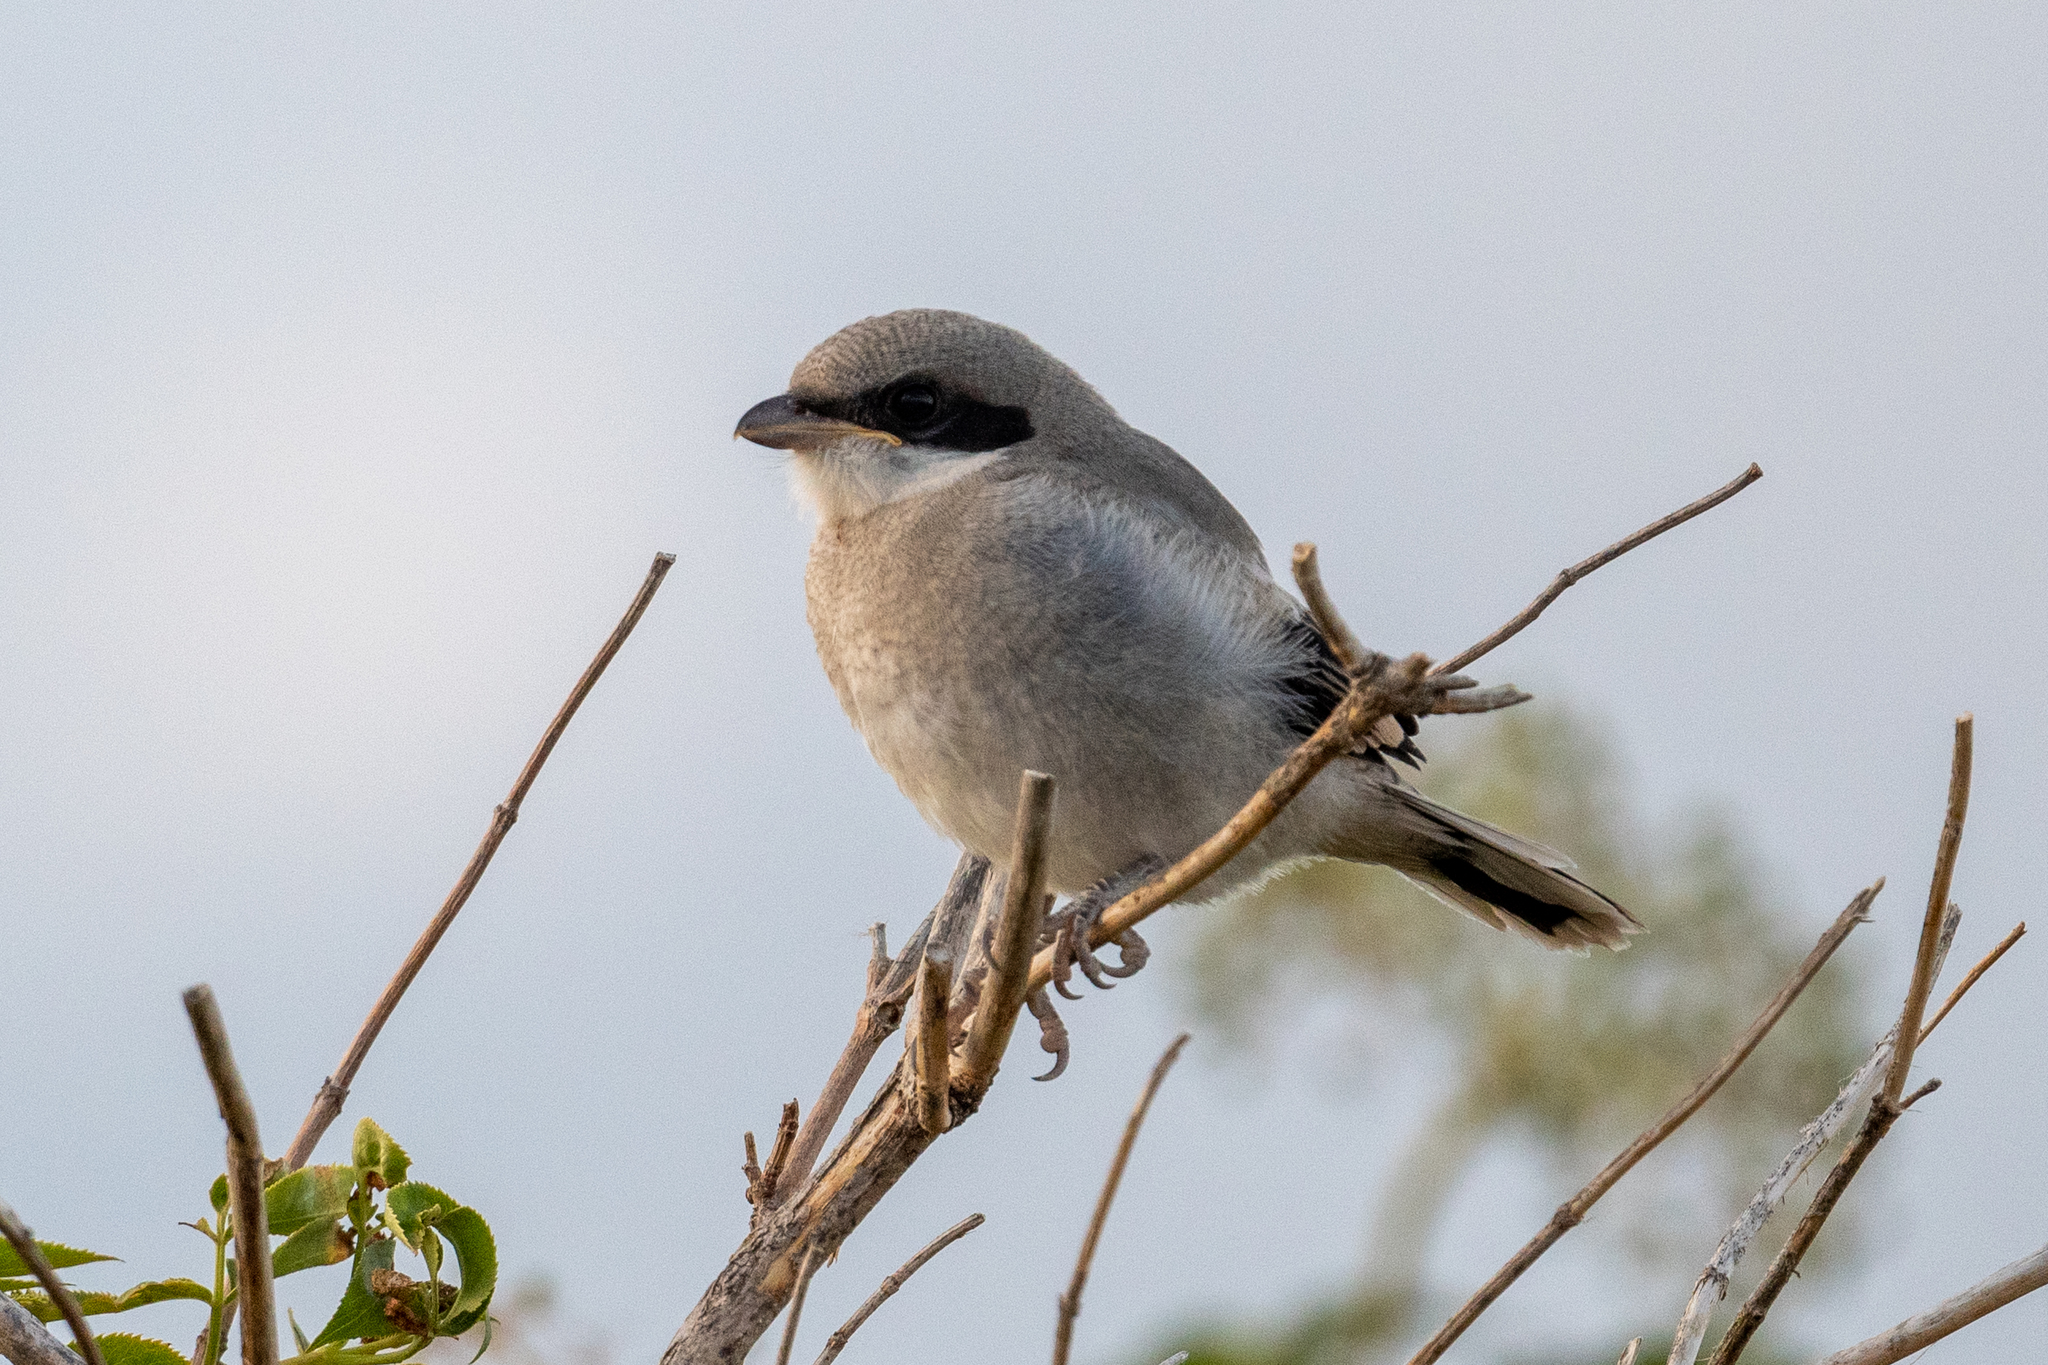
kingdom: Animalia
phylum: Chordata
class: Aves
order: Passeriformes
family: Laniidae
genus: Lanius
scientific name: Lanius ludovicianus
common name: Loggerhead shrike
